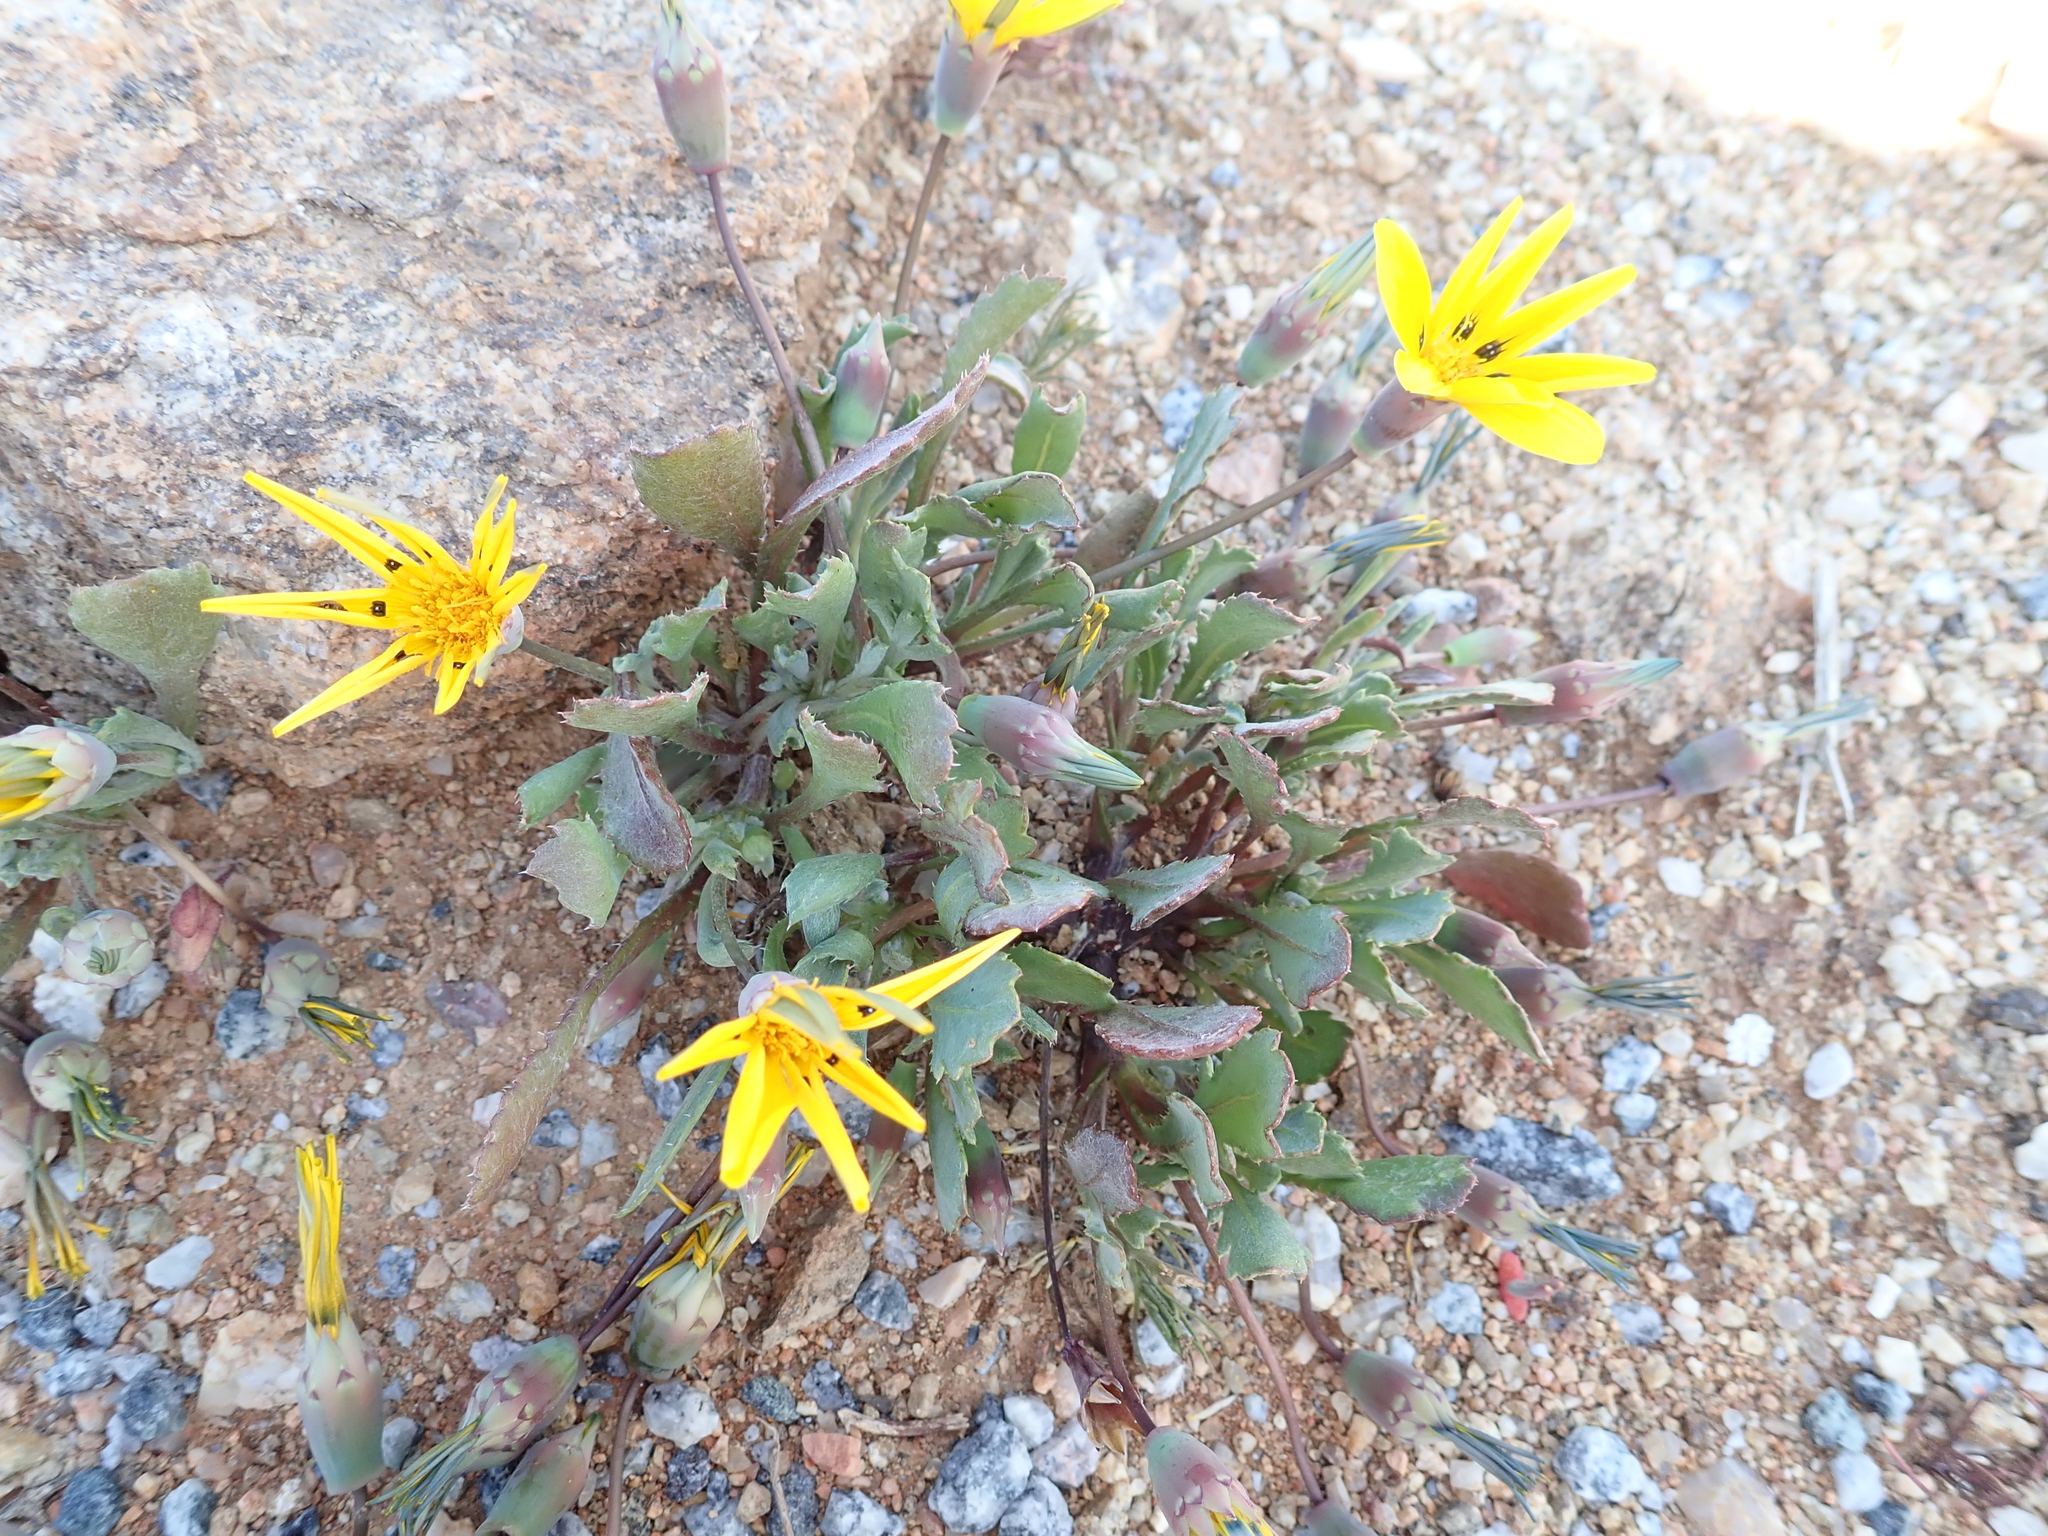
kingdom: Plantae
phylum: Tracheophyta
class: Magnoliopsida
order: Asterales
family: Asteraceae
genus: Gazania
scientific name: Gazania lichtensteinii
